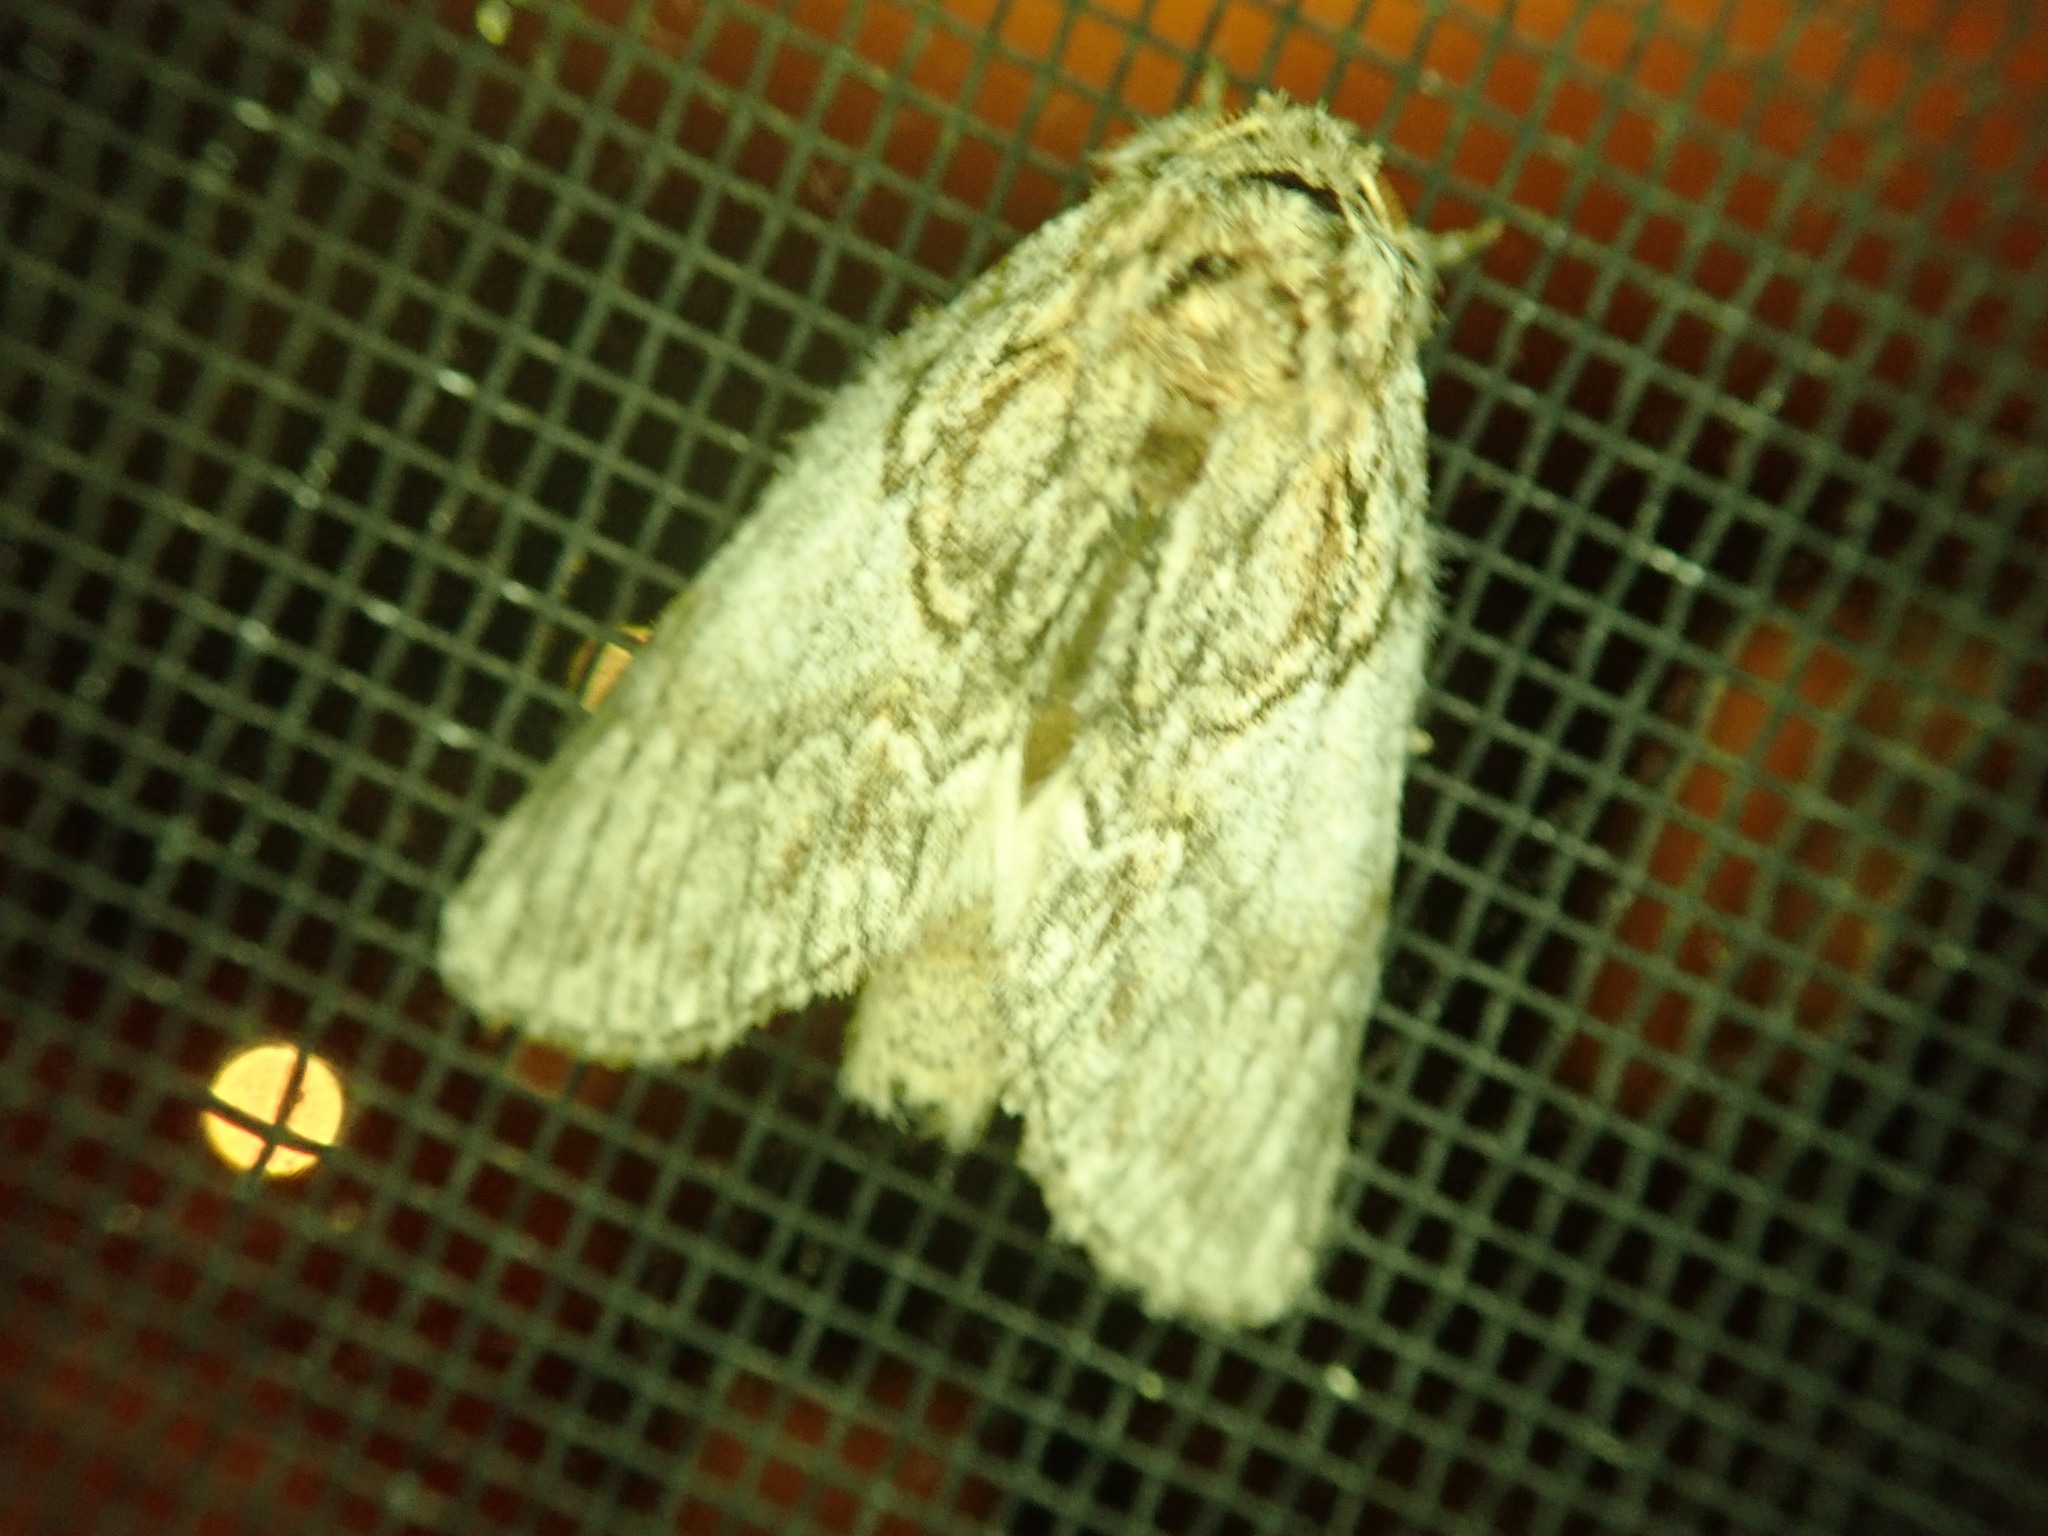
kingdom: Animalia
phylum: Arthropoda
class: Insecta
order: Lepidoptera
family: Notodontidae
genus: Peridea
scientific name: Peridea basitriens
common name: Oval-based prominent
